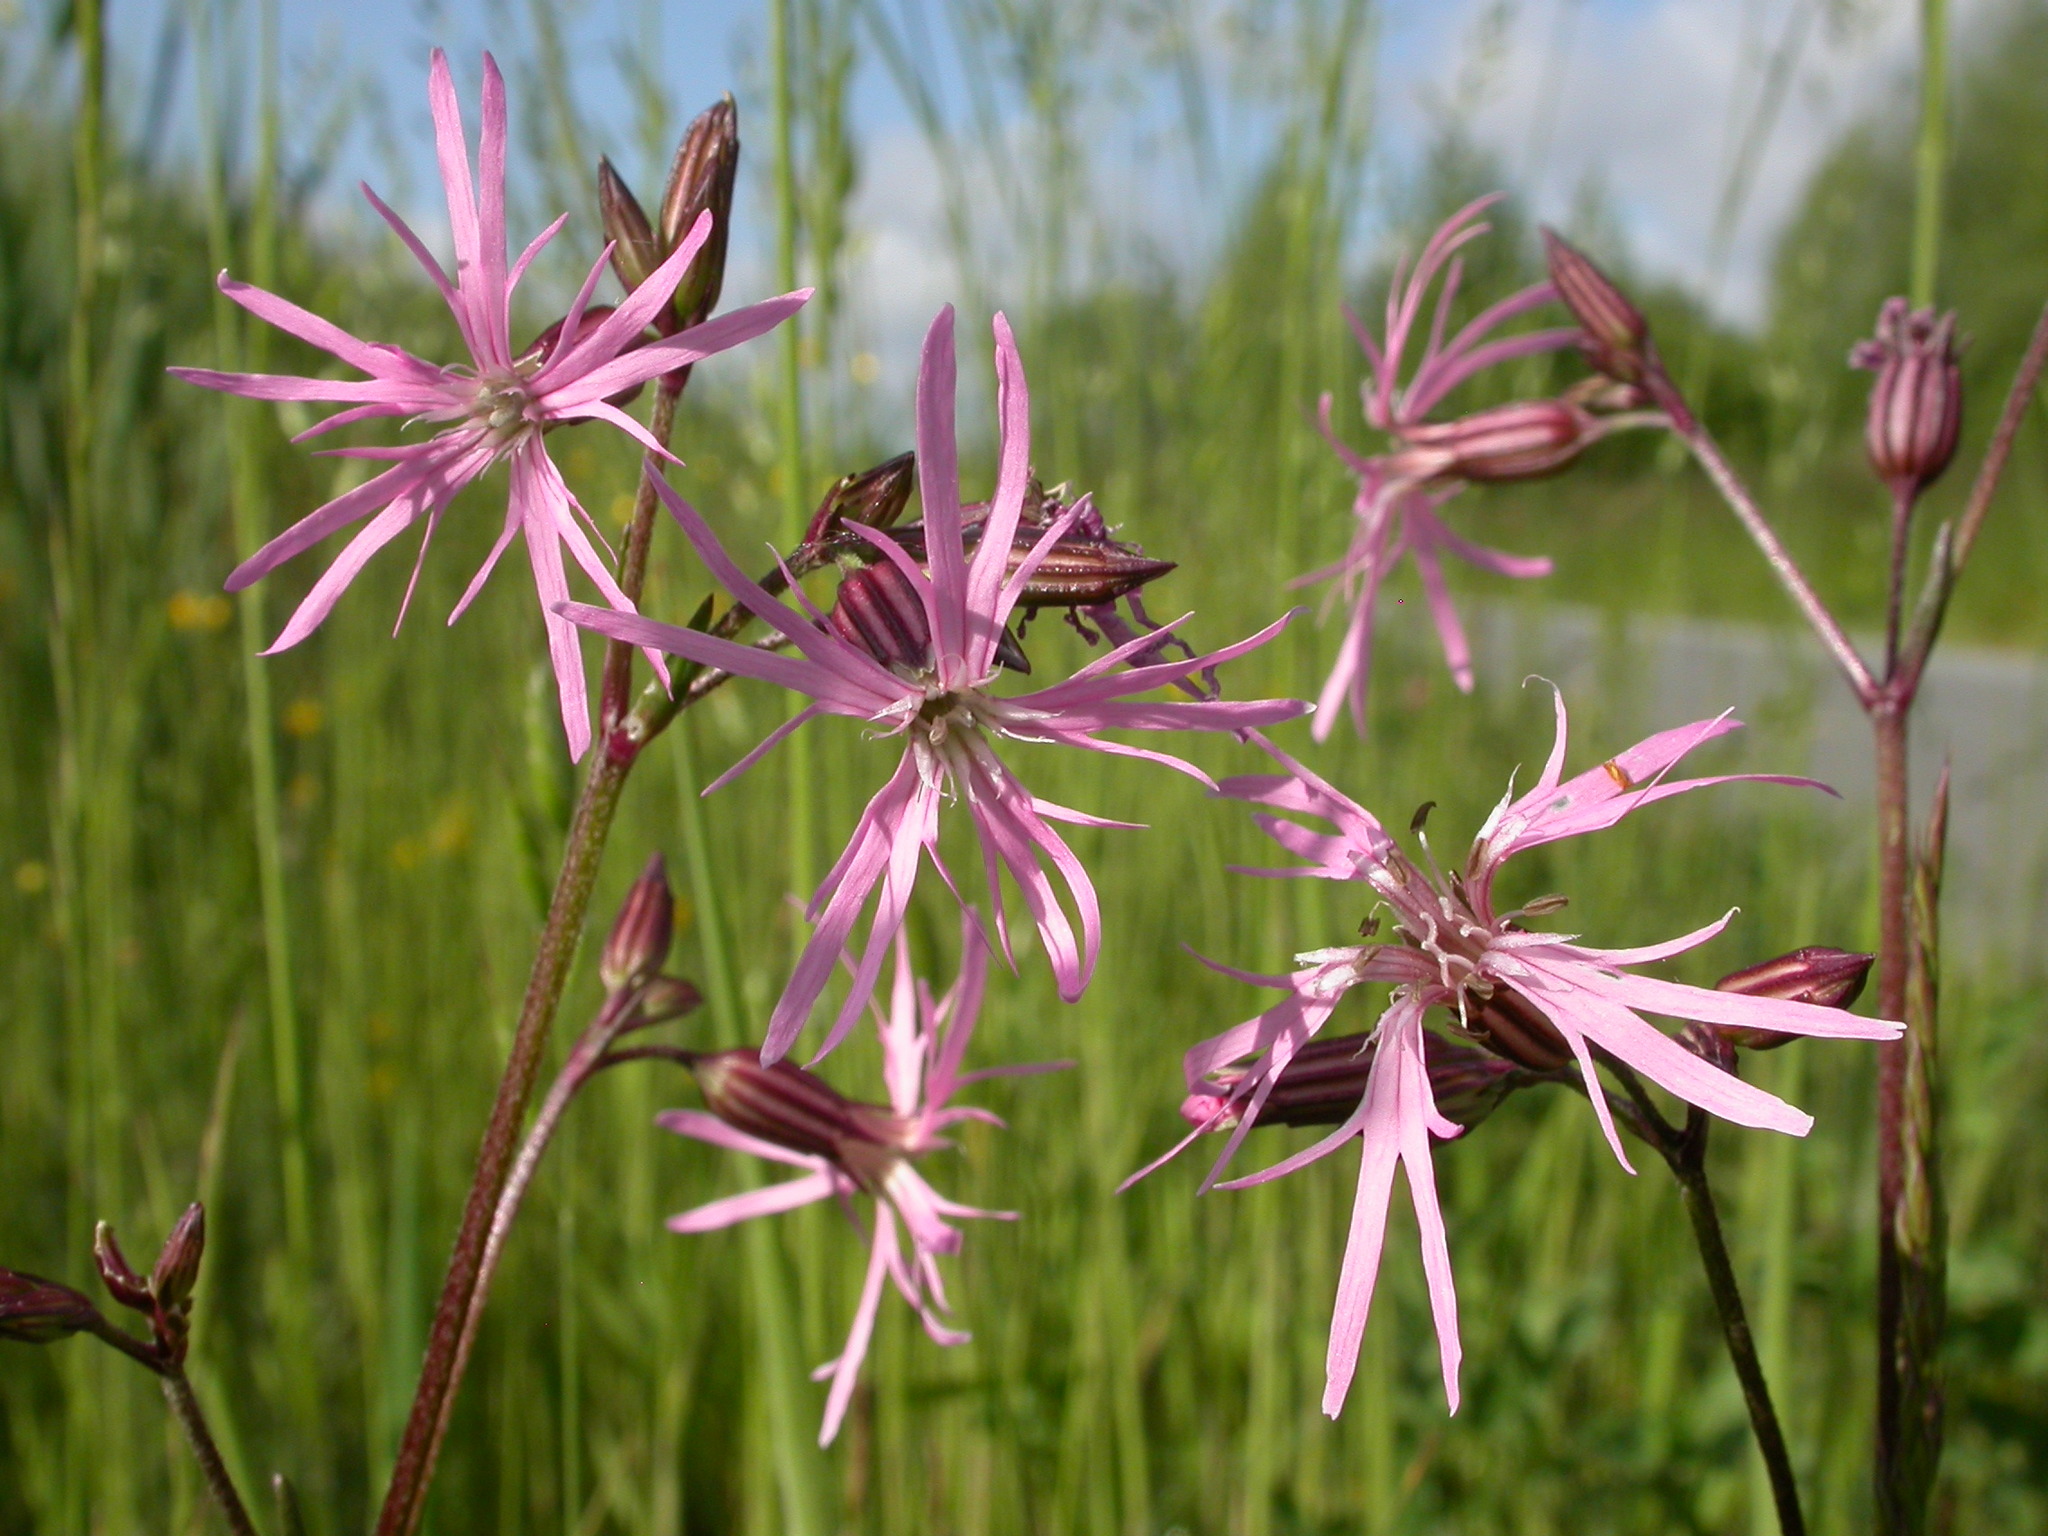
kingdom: Plantae
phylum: Tracheophyta
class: Magnoliopsida
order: Caryophyllales
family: Caryophyllaceae
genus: Silene
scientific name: Silene flos-cuculi
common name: Ragged-robin
